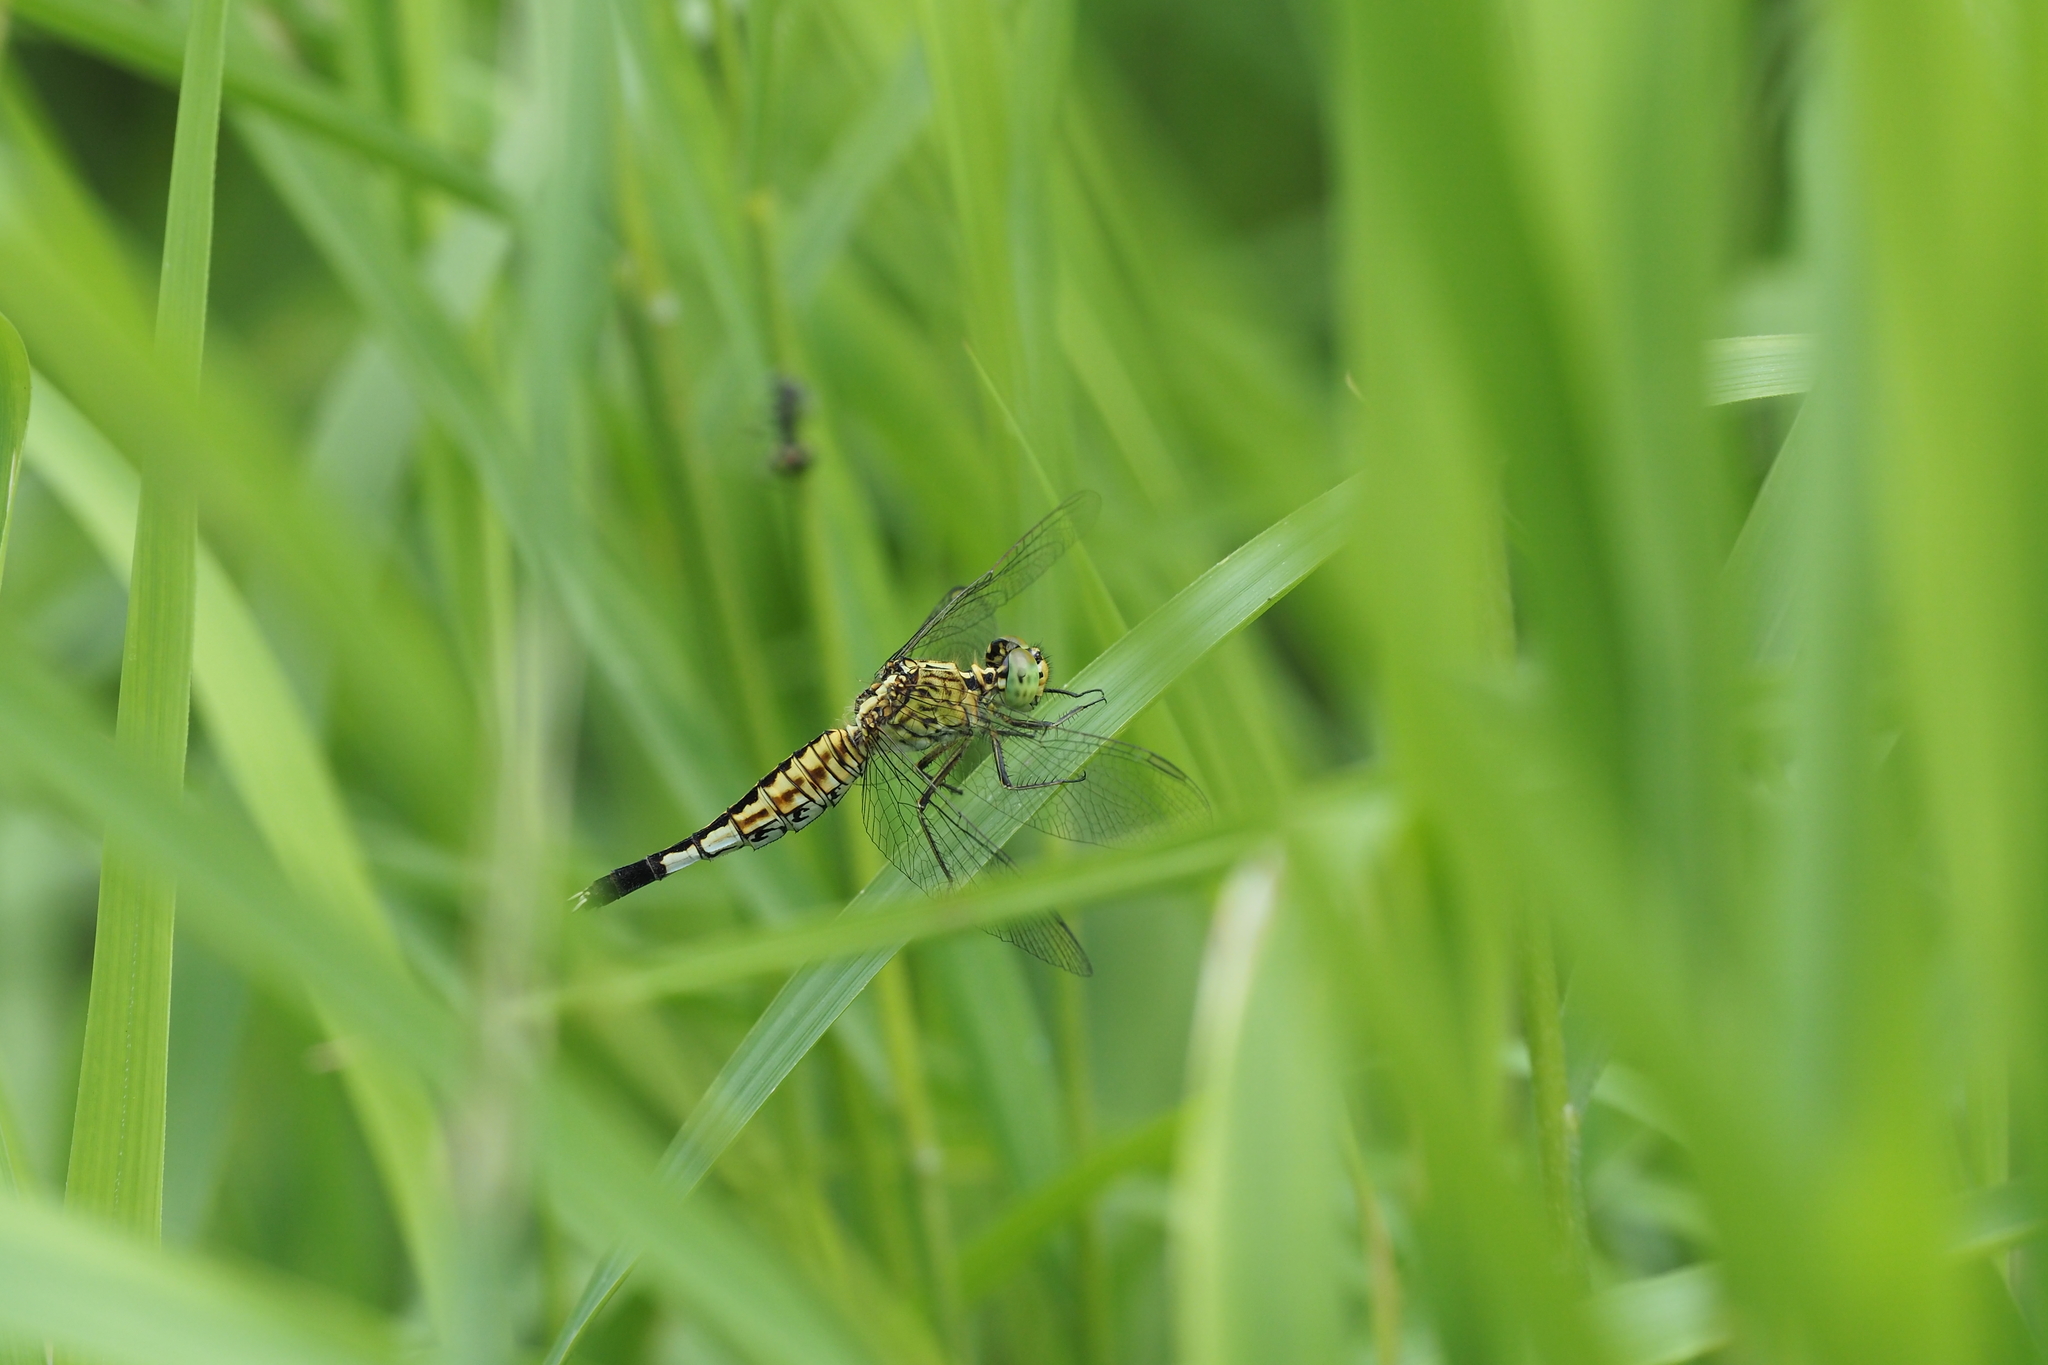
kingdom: Animalia
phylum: Arthropoda
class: Insecta
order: Odonata
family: Libellulidae
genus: Acisoma
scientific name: Acisoma panorpoides
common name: Asian pintail
